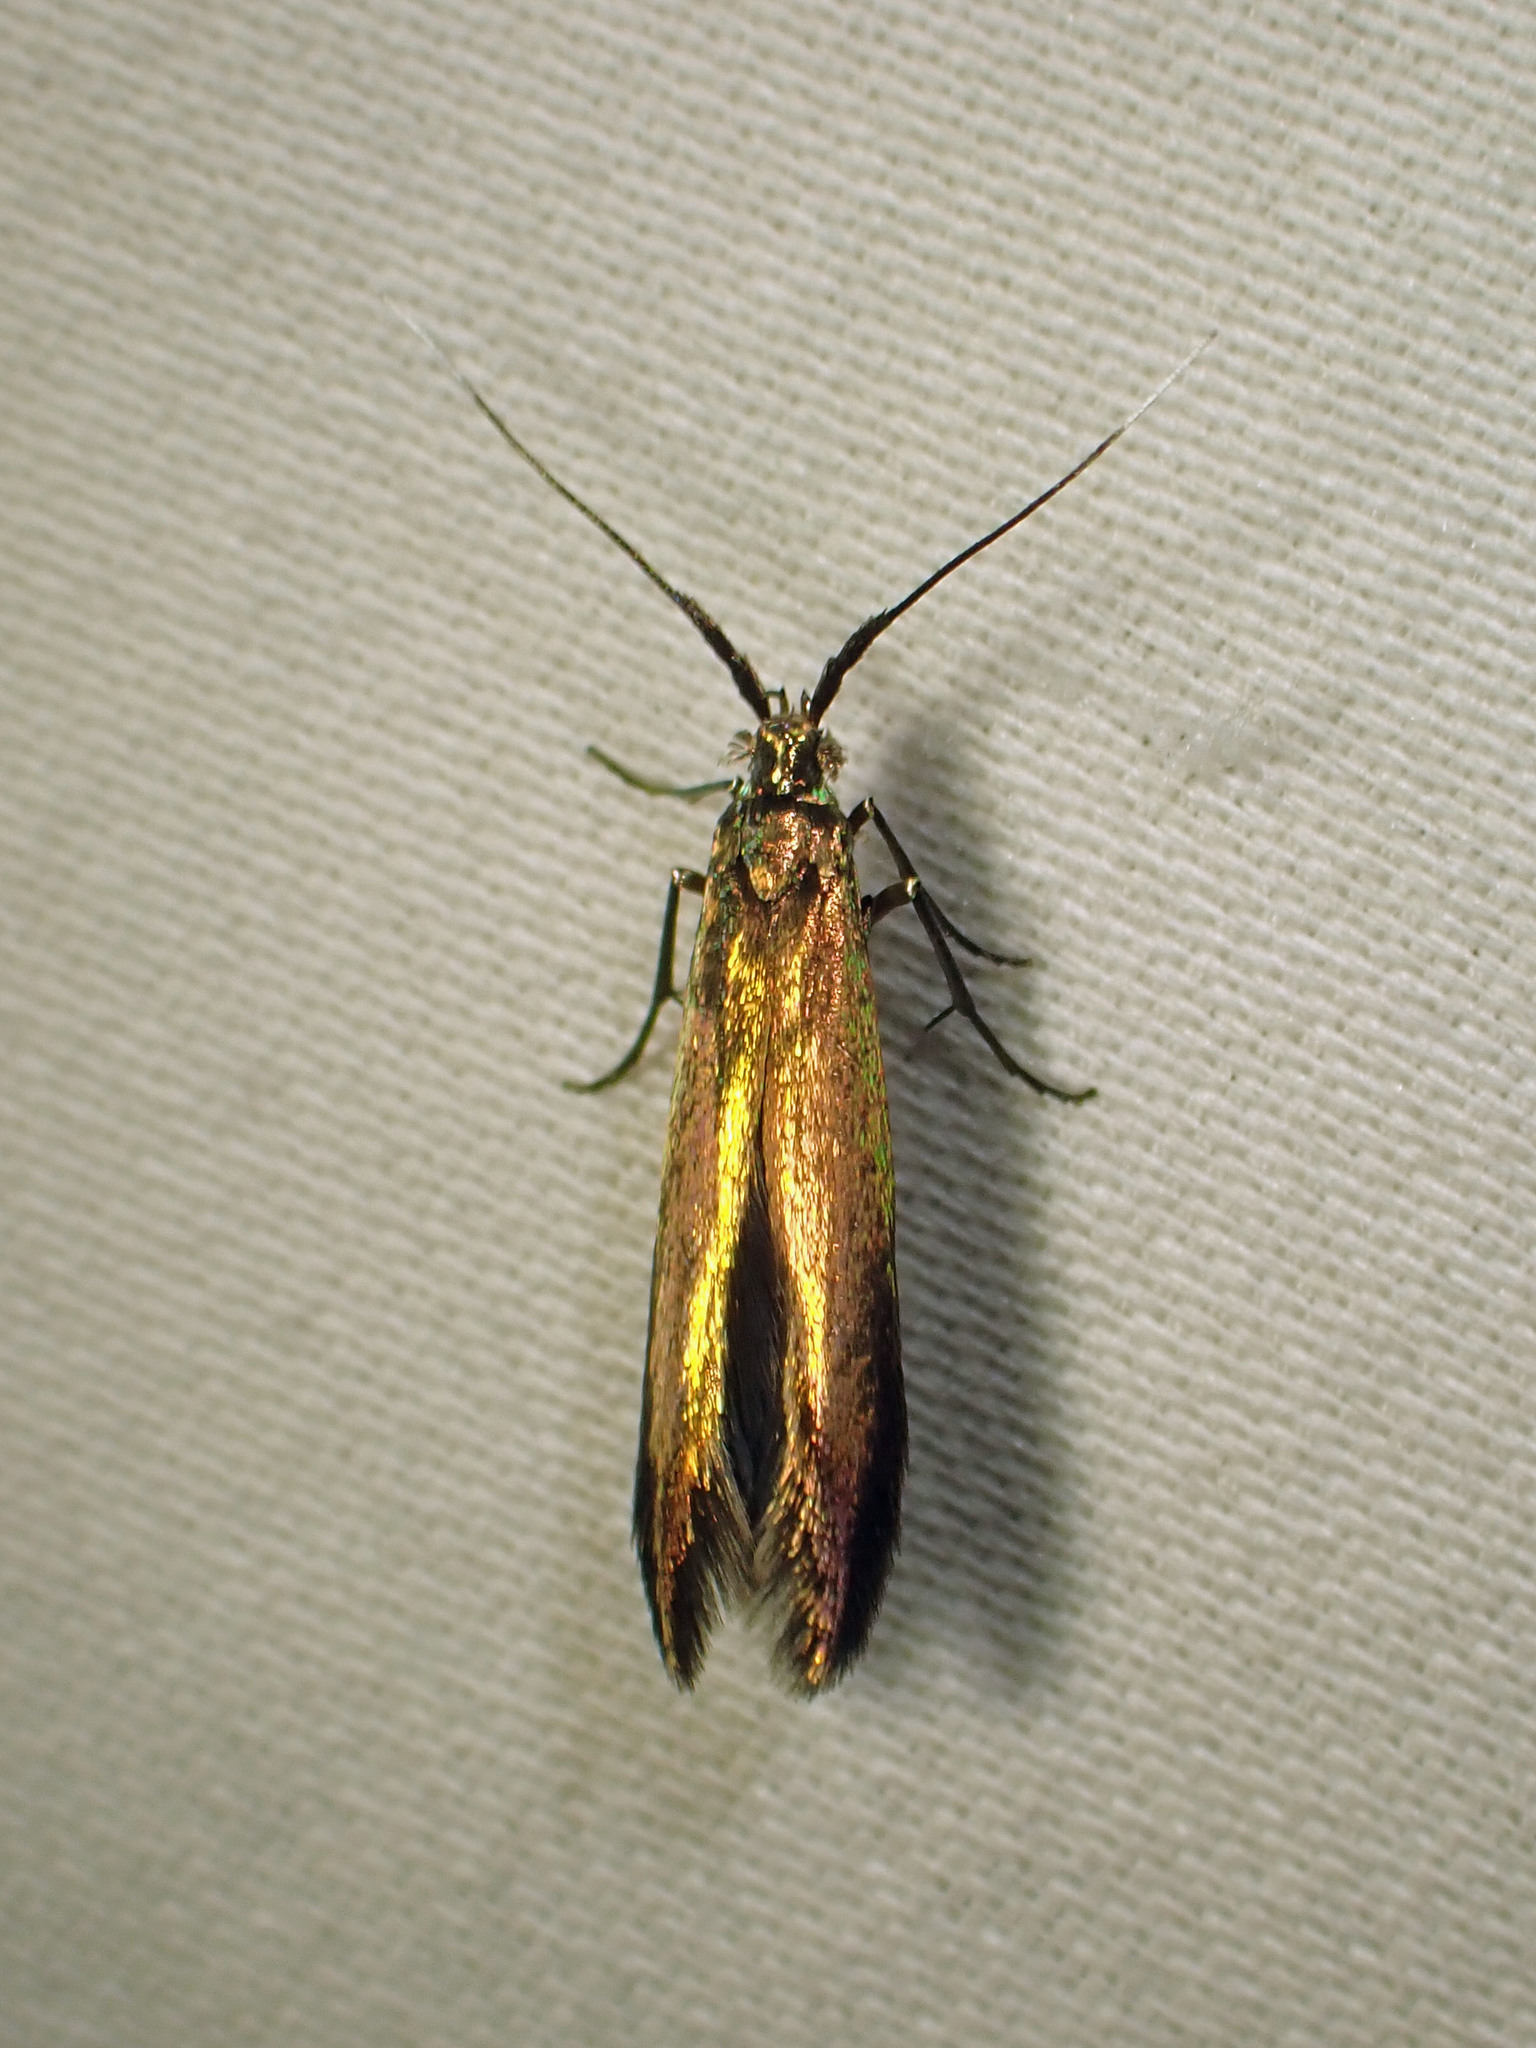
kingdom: Animalia
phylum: Arthropoda
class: Insecta
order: Lepidoptera
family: Coleophoridae
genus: Coleophora
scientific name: Coleophora trifolii
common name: Large clover case-bearer
